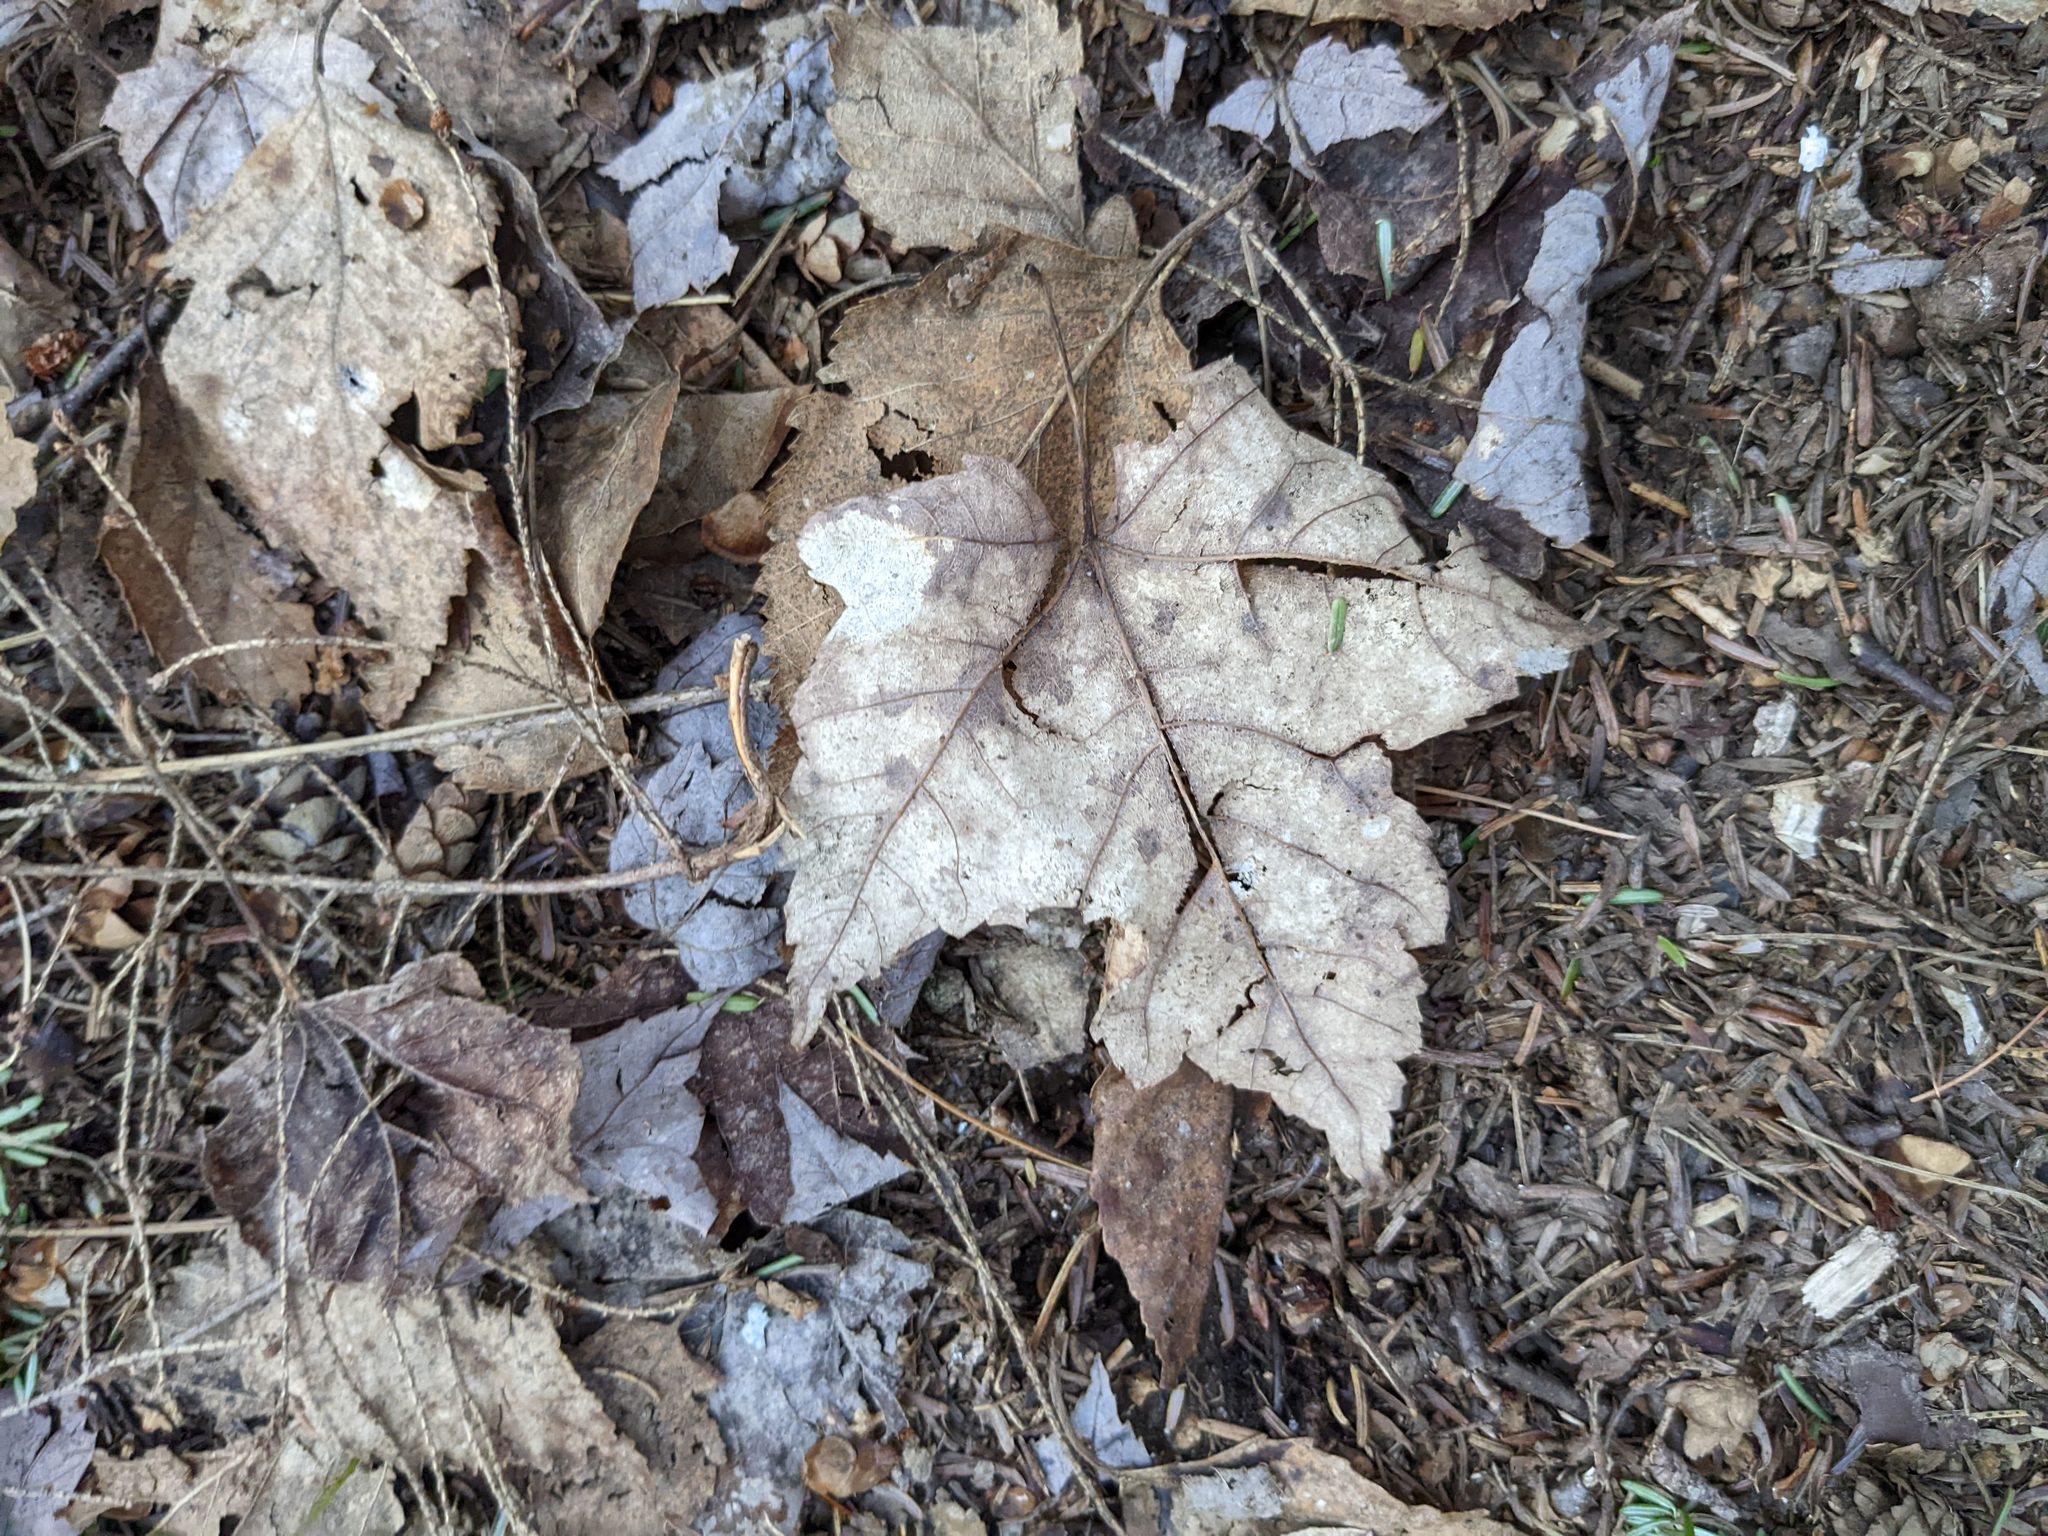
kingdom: Plantae
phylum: Tracheophyta
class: Magnoliopsida
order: Sapindales
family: Sapindaceae
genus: Acer
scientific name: Acer rubrum
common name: Red maple
